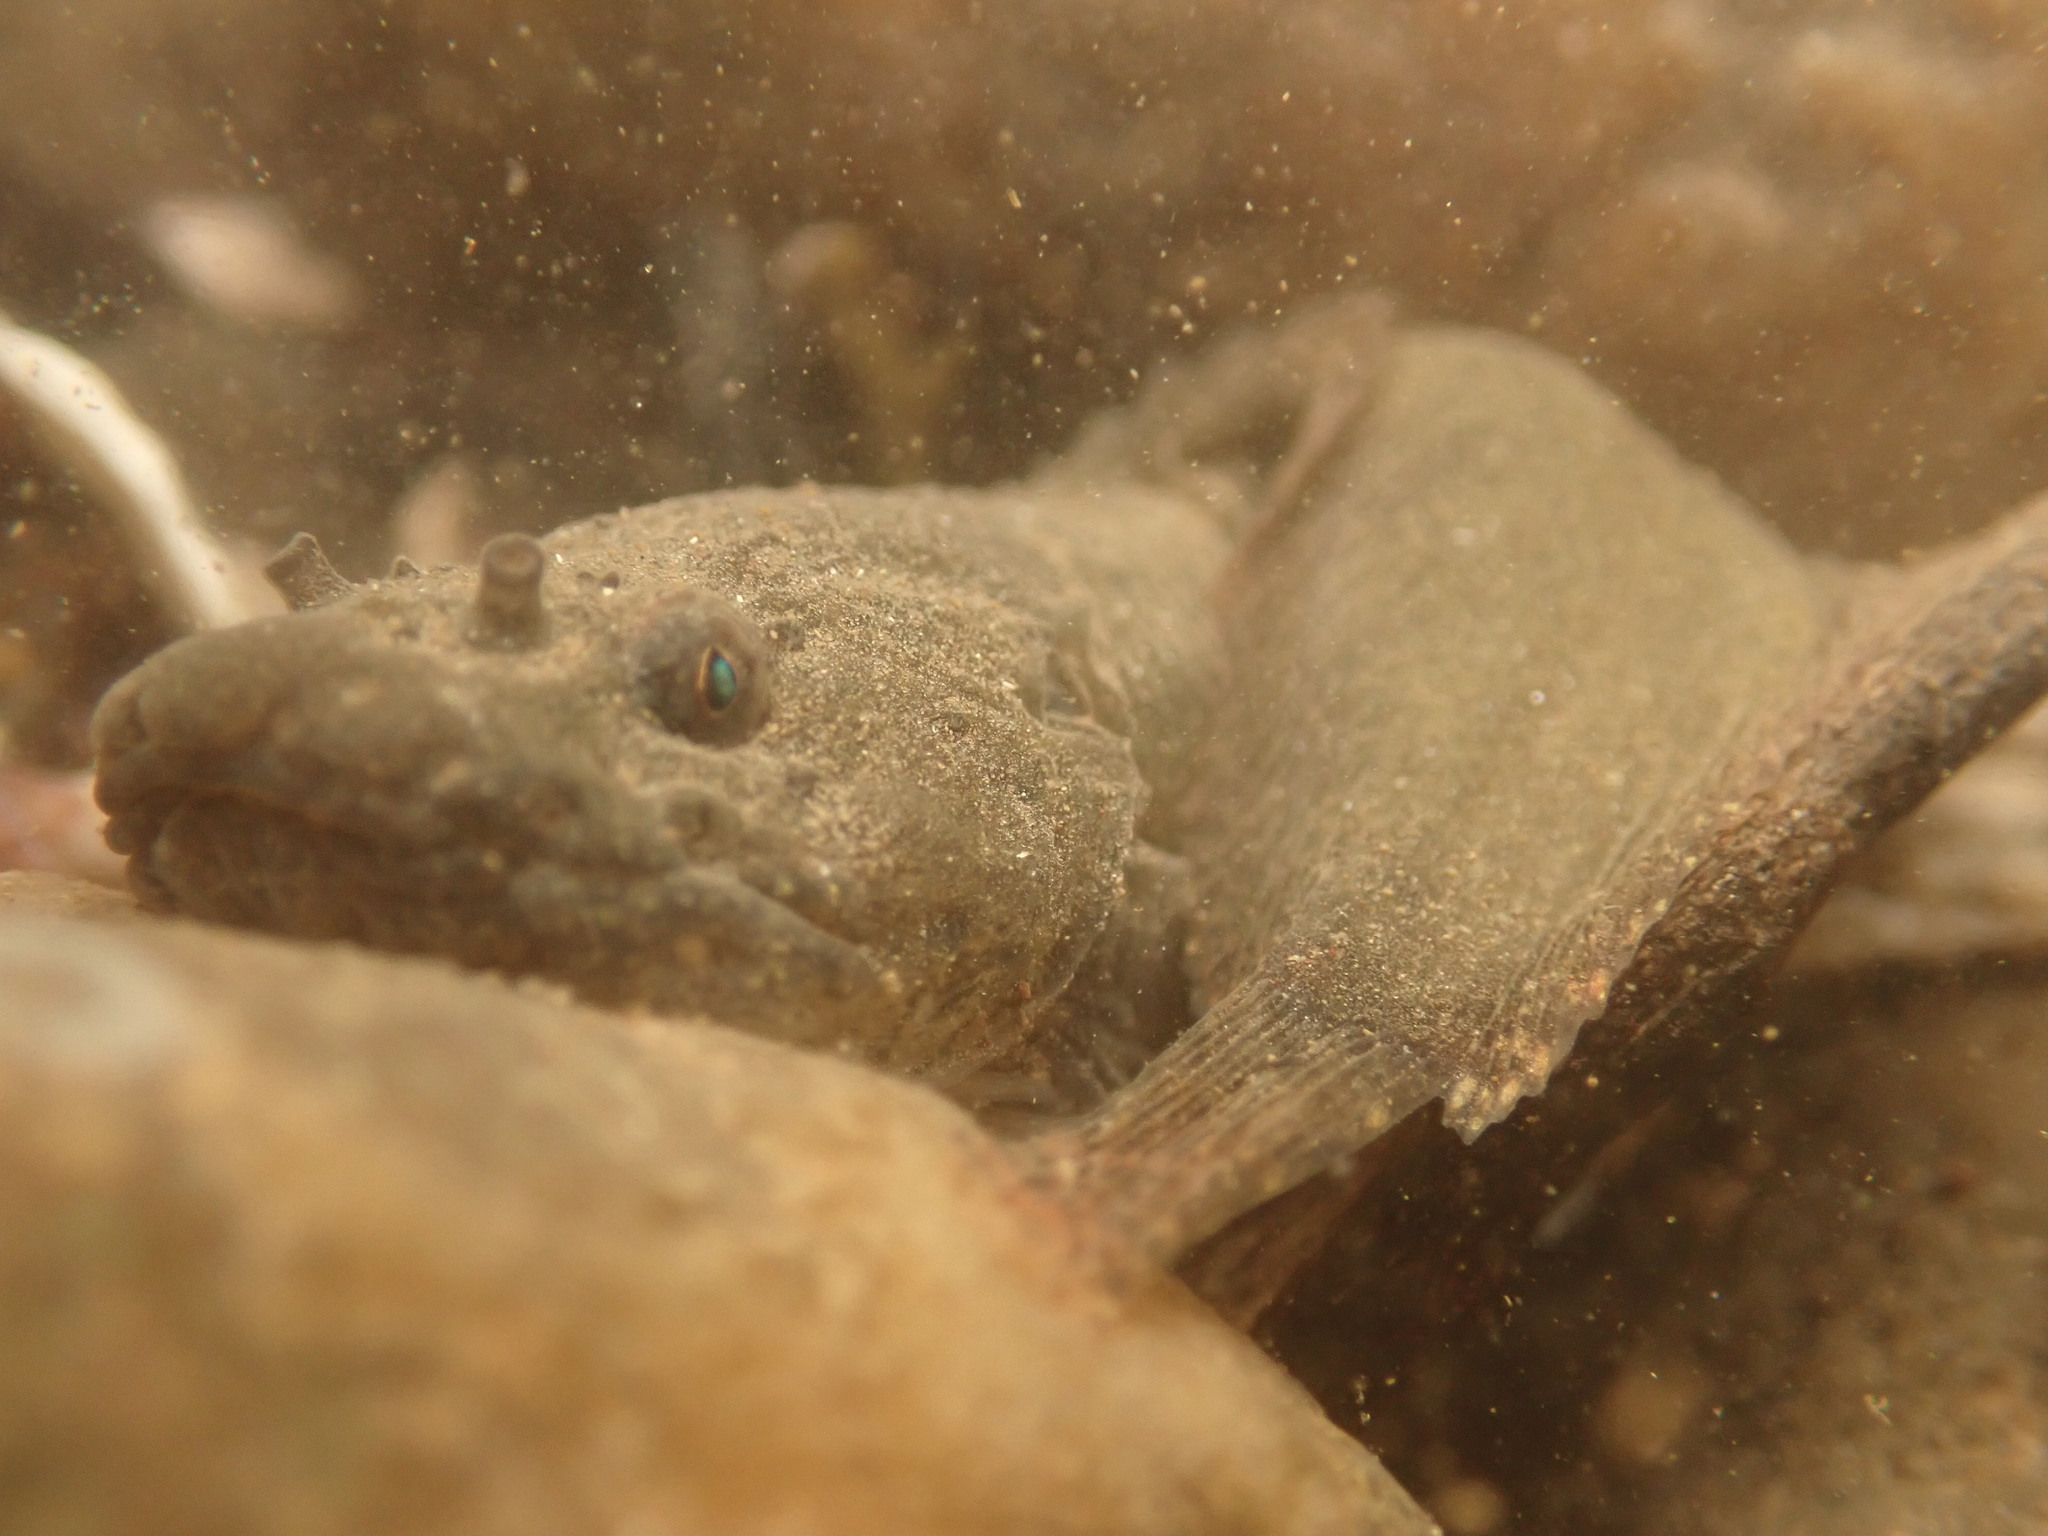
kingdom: Animalia
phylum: Chordata
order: Scorpaeniformes
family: Liparidae
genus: Liparis
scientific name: Liparis atlanticus
